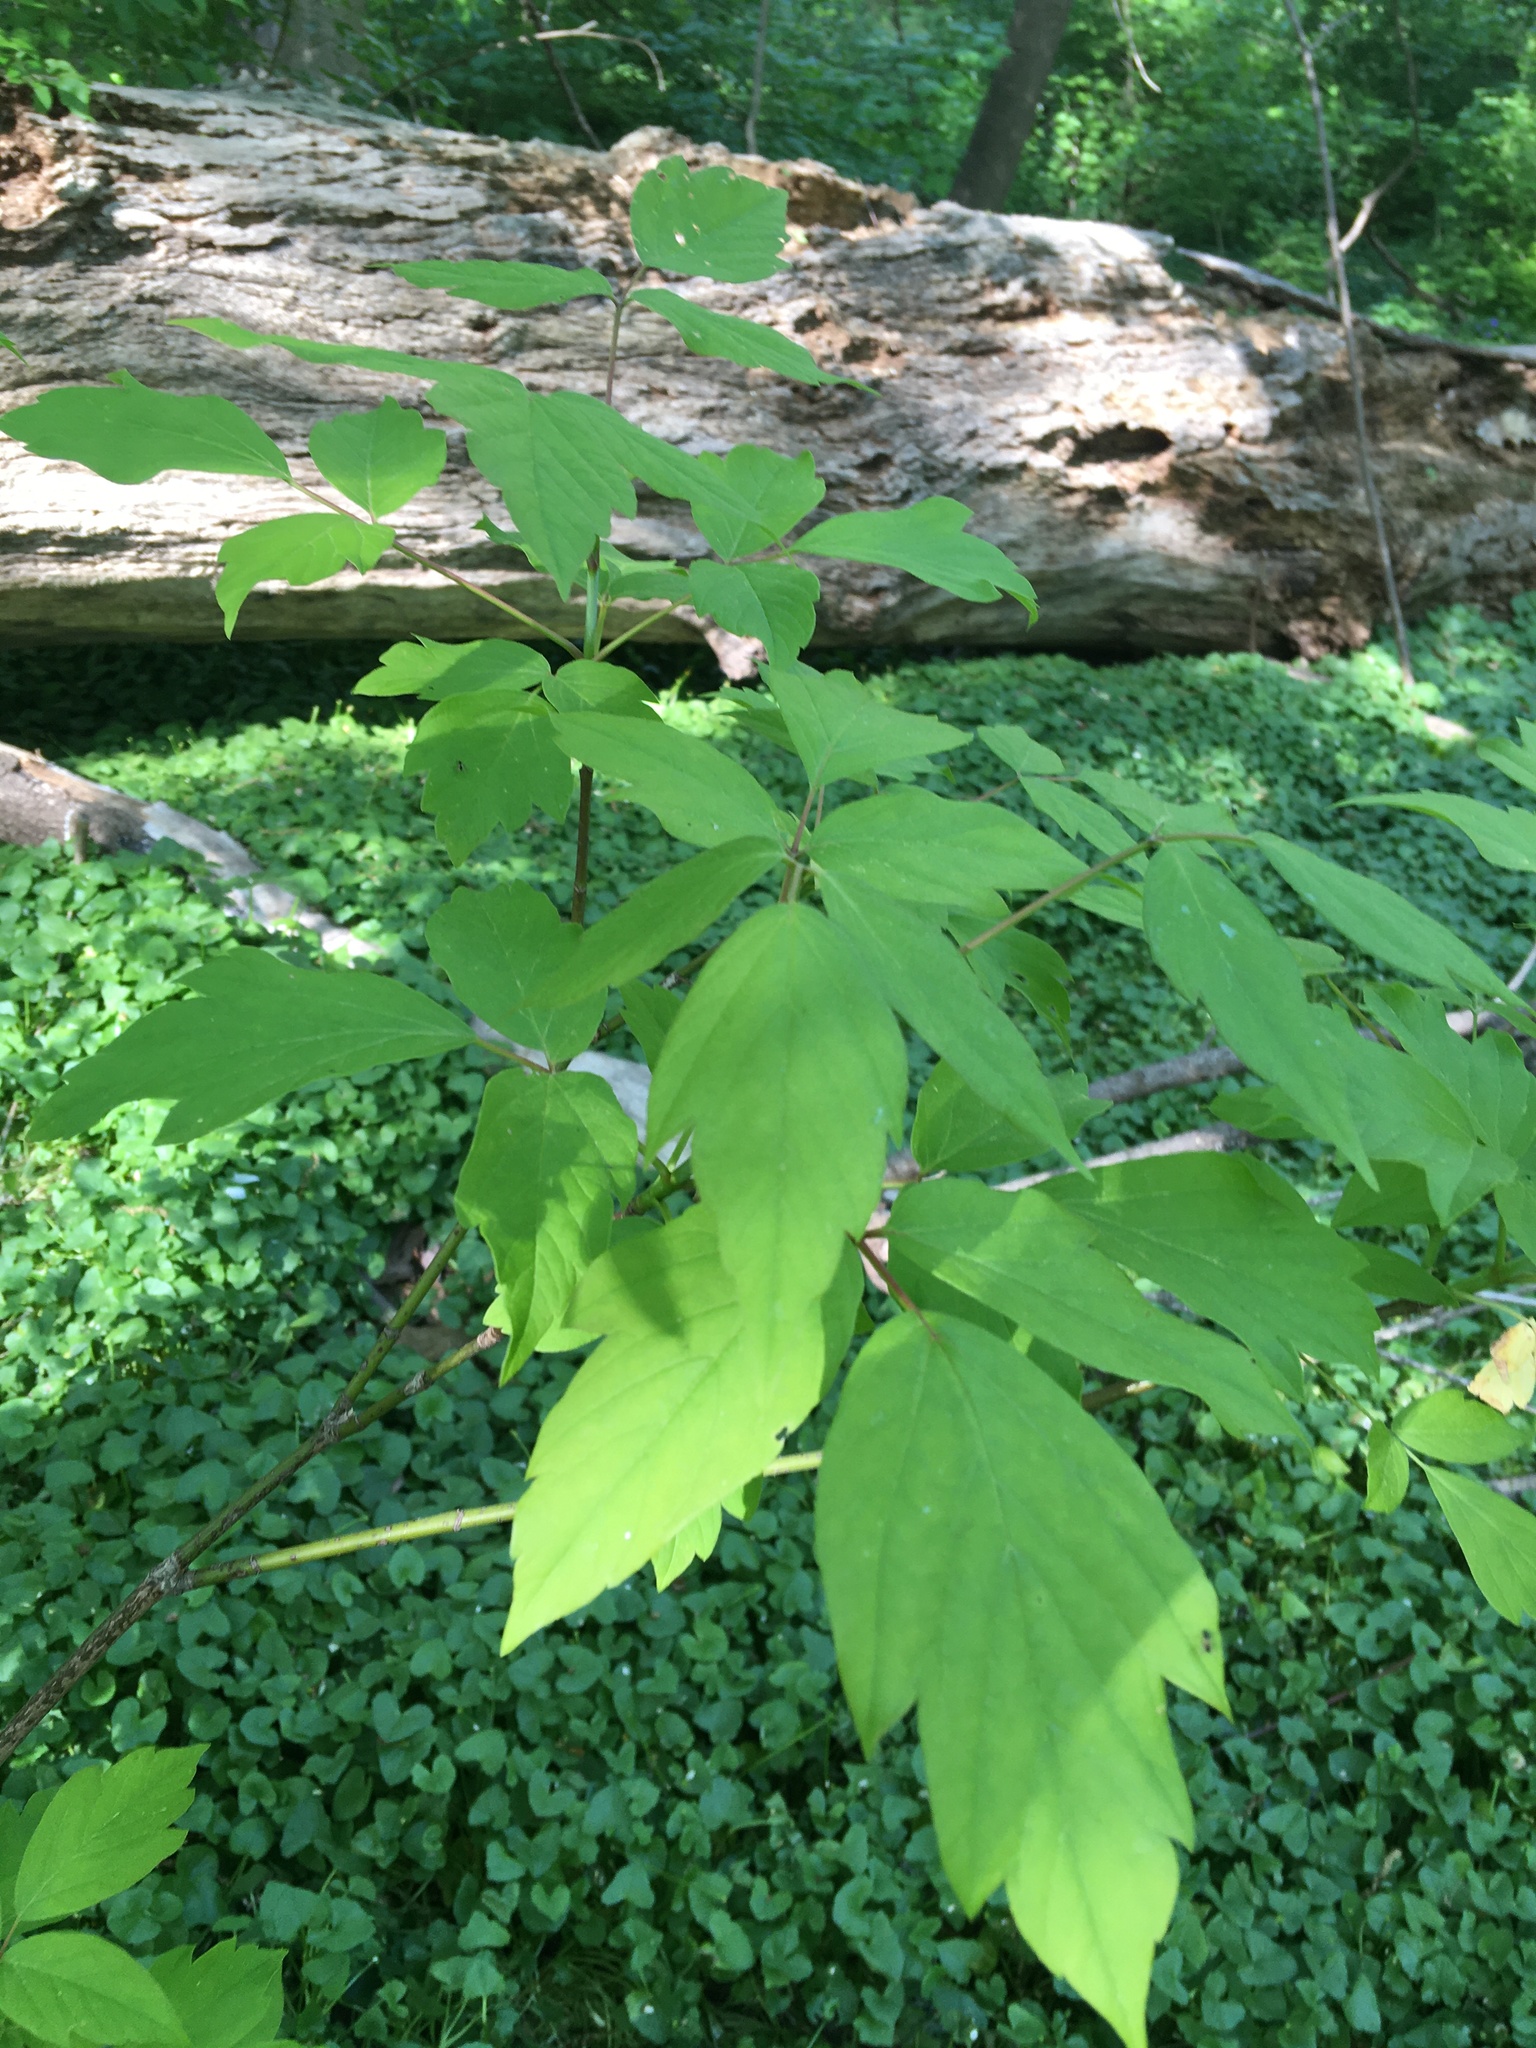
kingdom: Plantae
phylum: Tracheophyta
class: Magnoliopsida
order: Sapindales
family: Sapindaceae
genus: Acer
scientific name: Acer negundo
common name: Ashleaf maple
